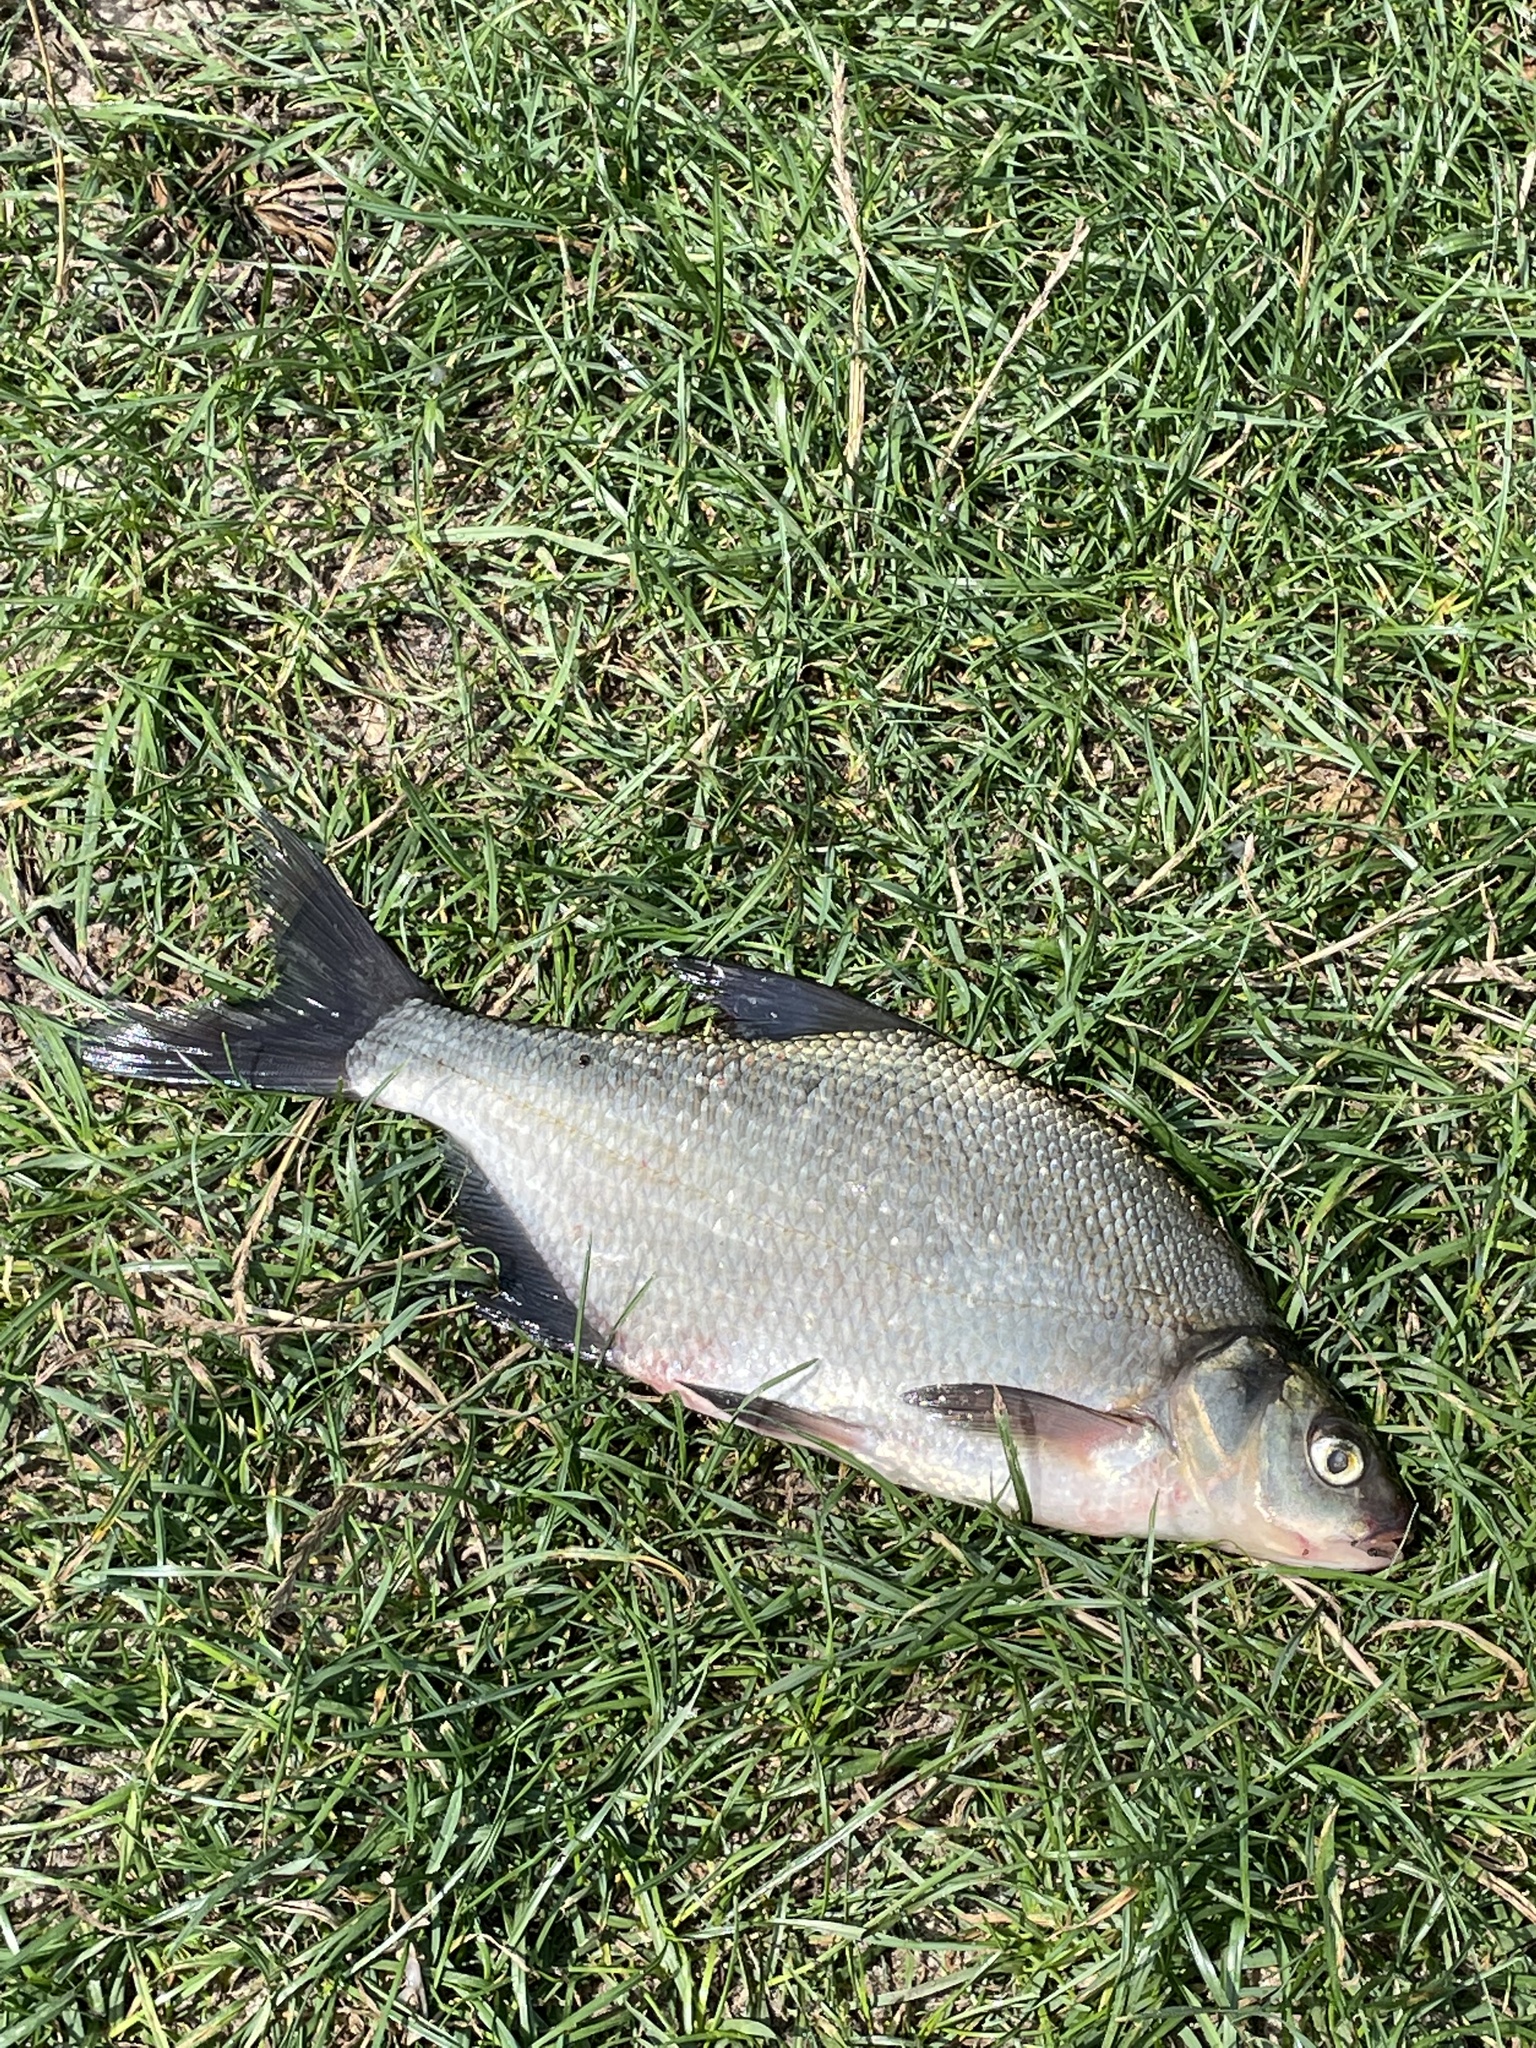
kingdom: Animalia
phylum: Chordata
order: Cypriniformes
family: Cyprinidae
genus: Abramis
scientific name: Abramis brama
